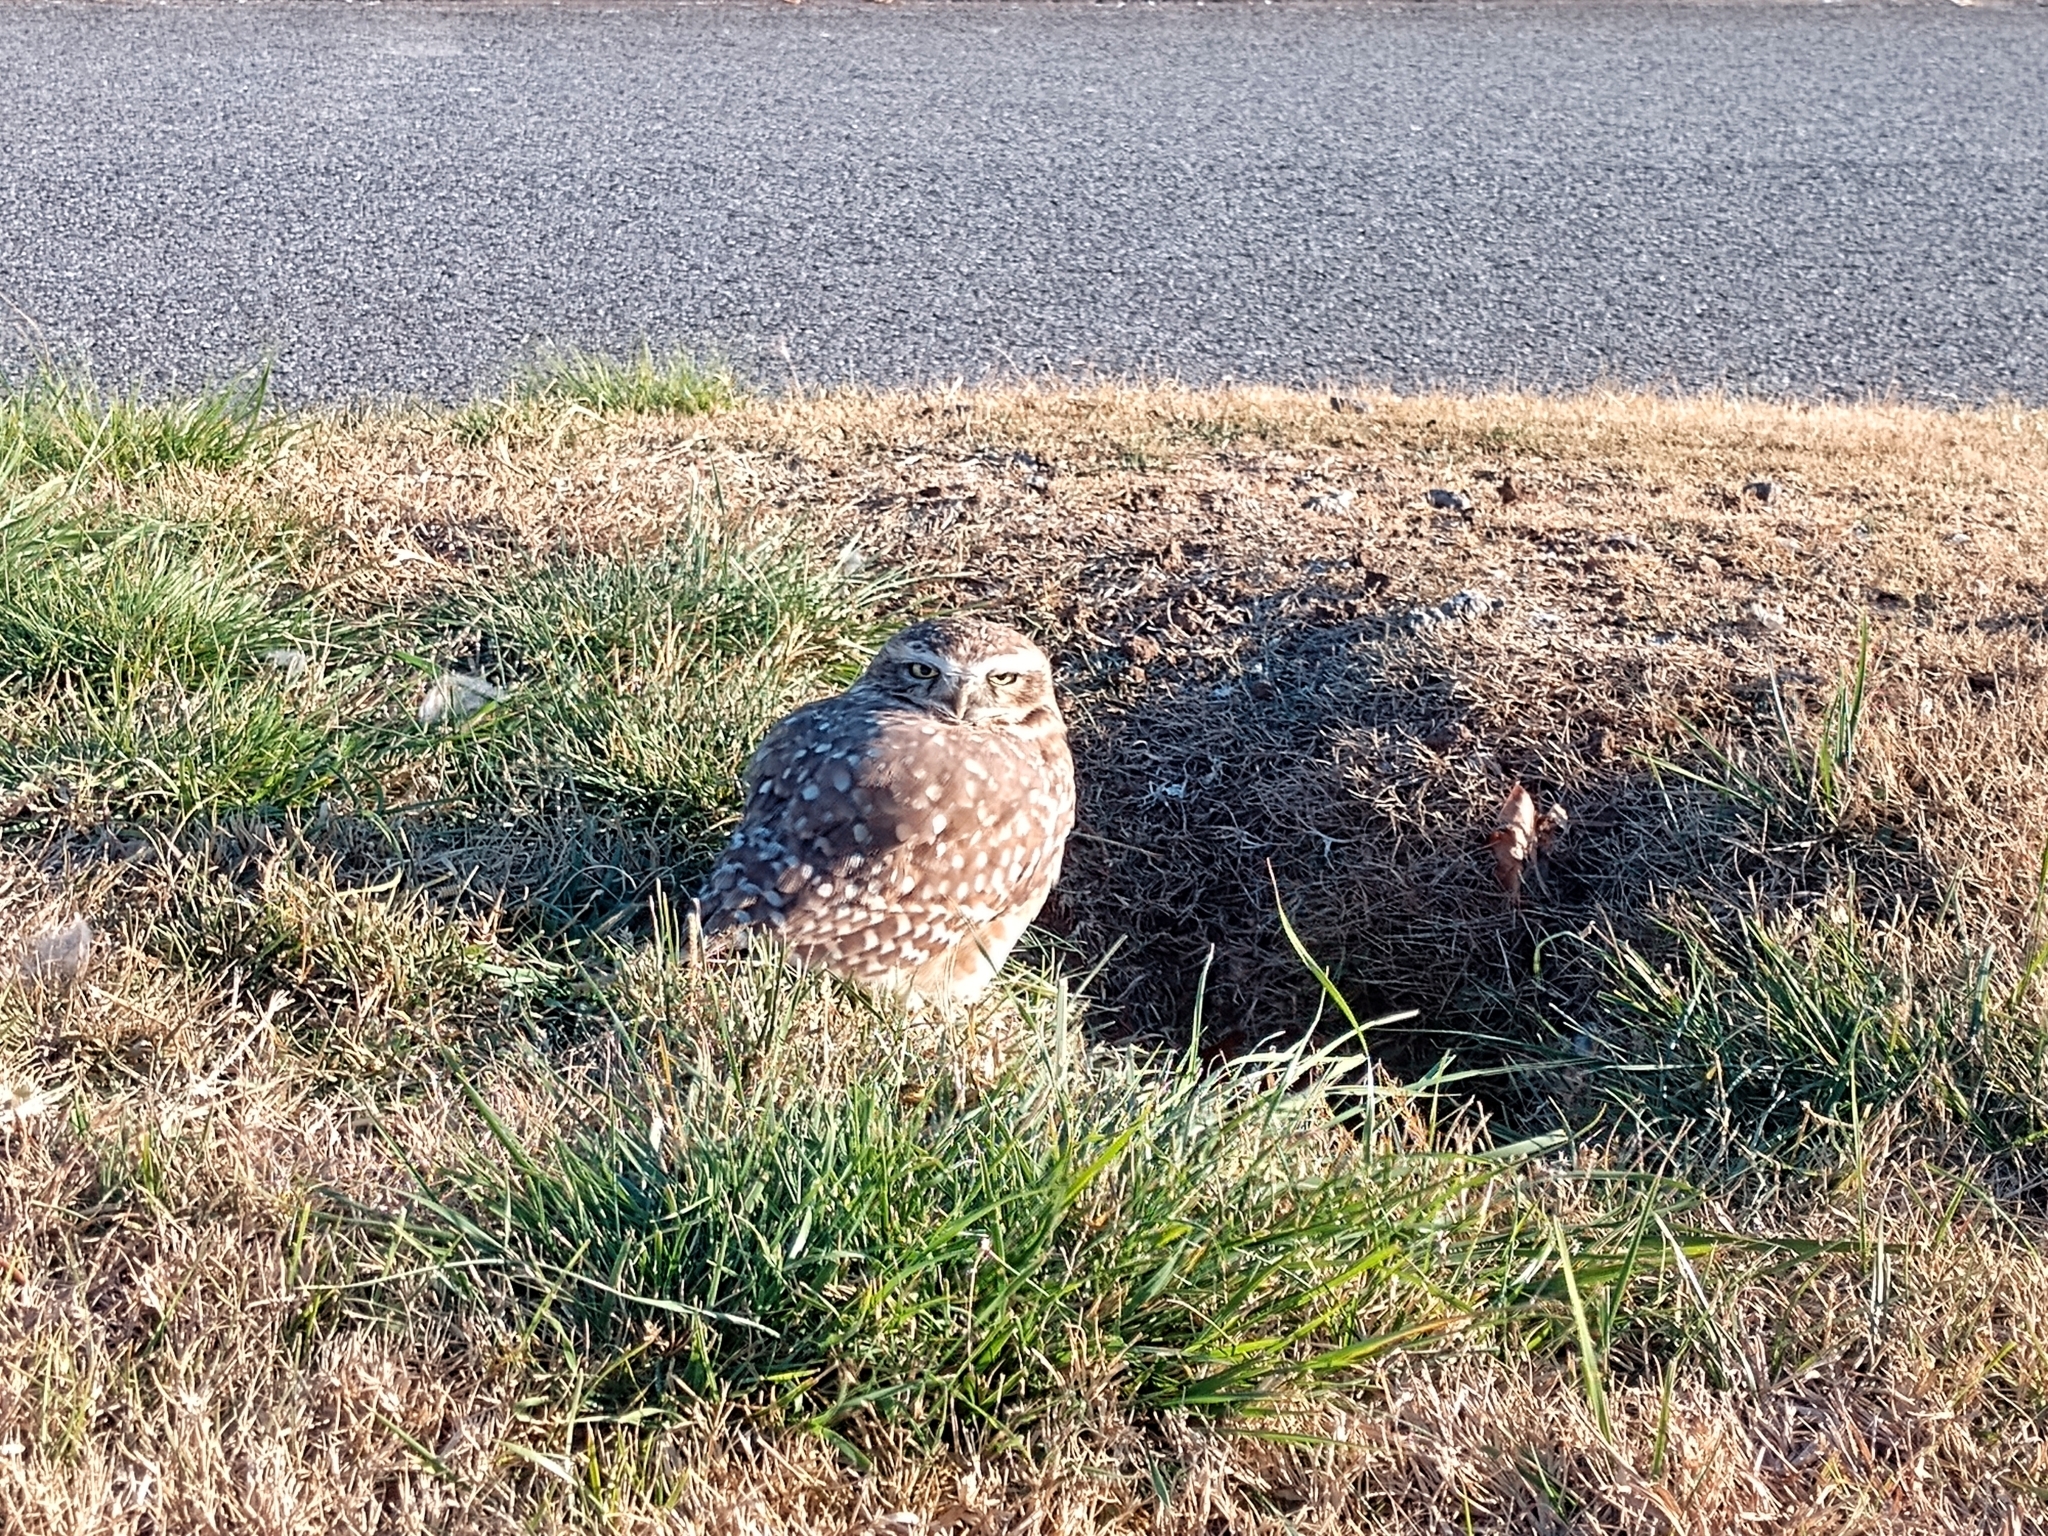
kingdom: Animalia
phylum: Chordata
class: Aves
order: Strigiformes
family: Strigidae
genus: Athene
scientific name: Athene cunicularia
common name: Burrowing owl
